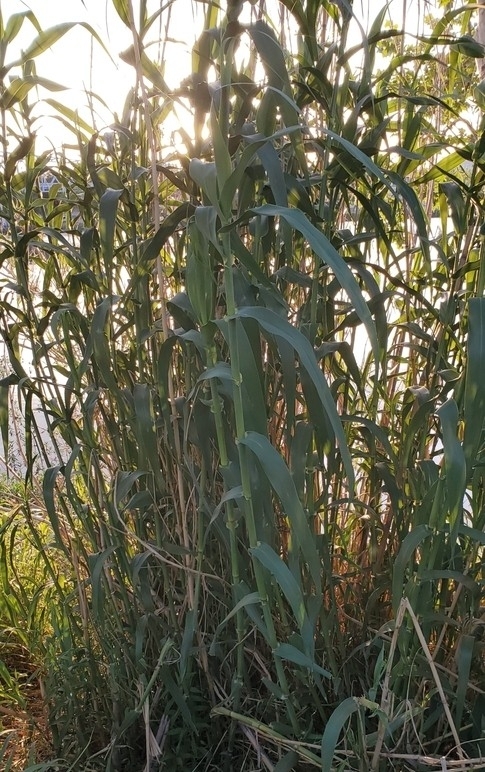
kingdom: Plantae
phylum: Tracheophyta
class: Liliopsida
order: Poales
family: Poaceae
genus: Arundo
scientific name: Arundo donax
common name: Giant reed
